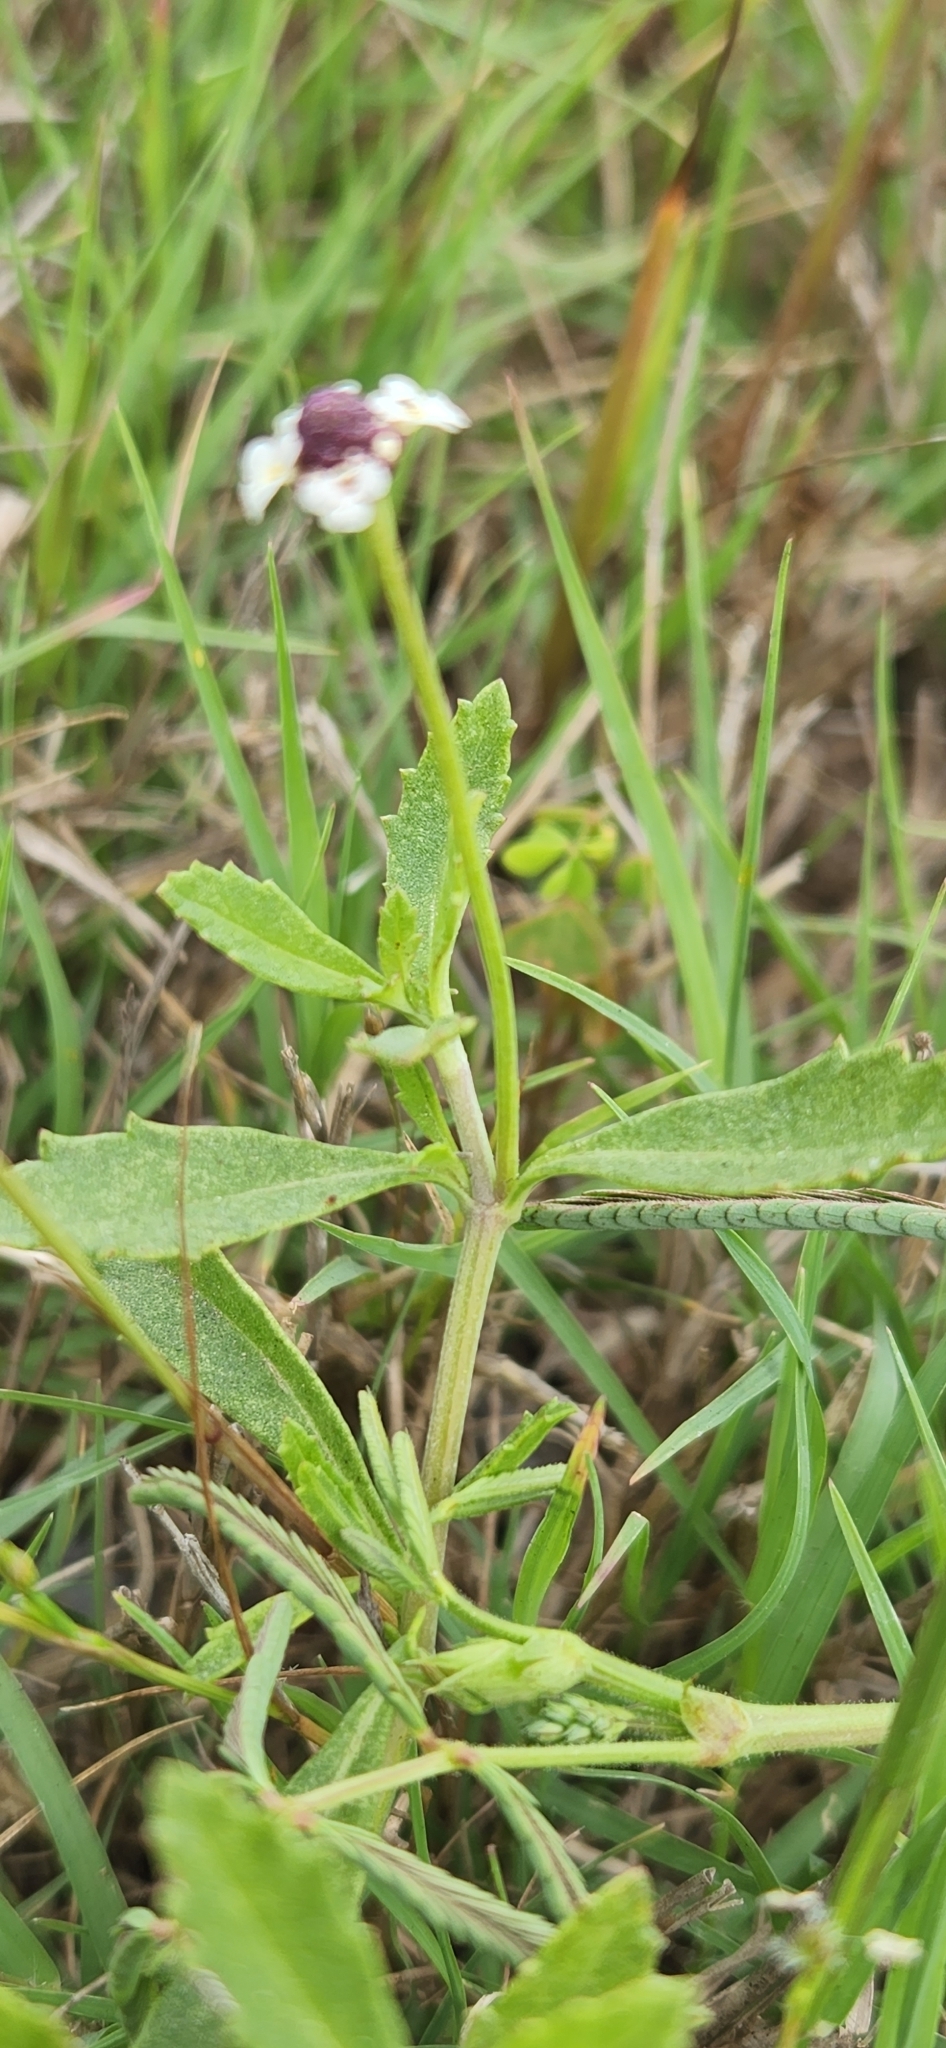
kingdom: Plantae
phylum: Tracheophyta
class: Magnoliopsida
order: Lamiales
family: Verbenaceae
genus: Phyla
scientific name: Phyla nodiflora
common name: Frogfruit
